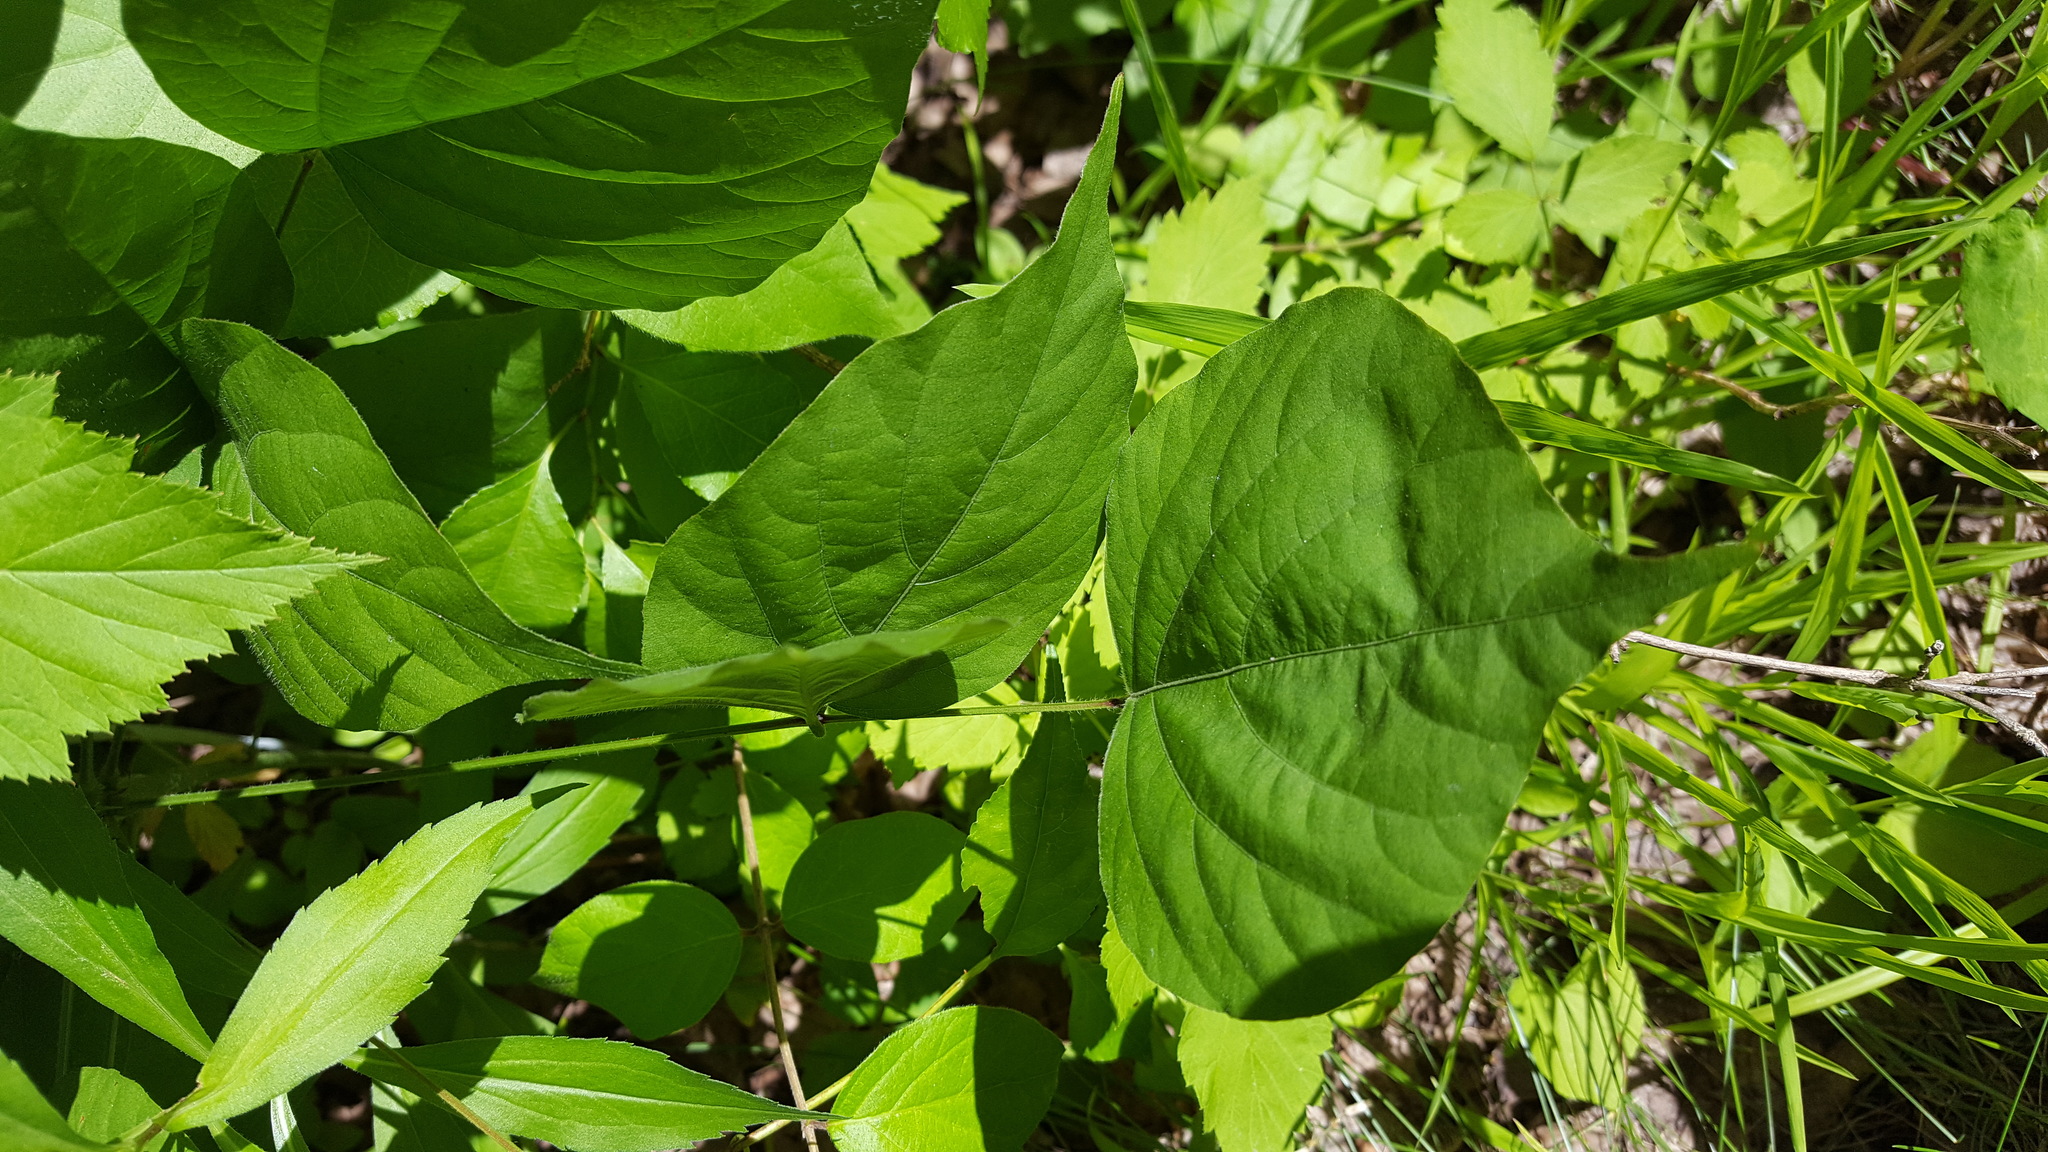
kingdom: Plantae
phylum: Tracheophyta
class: Magnoliopsida
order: Fabales
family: Fabaceae
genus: Hylodesmum
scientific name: Hylodesmum glutinosum
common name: Clustered-leaved tick-trefoil
